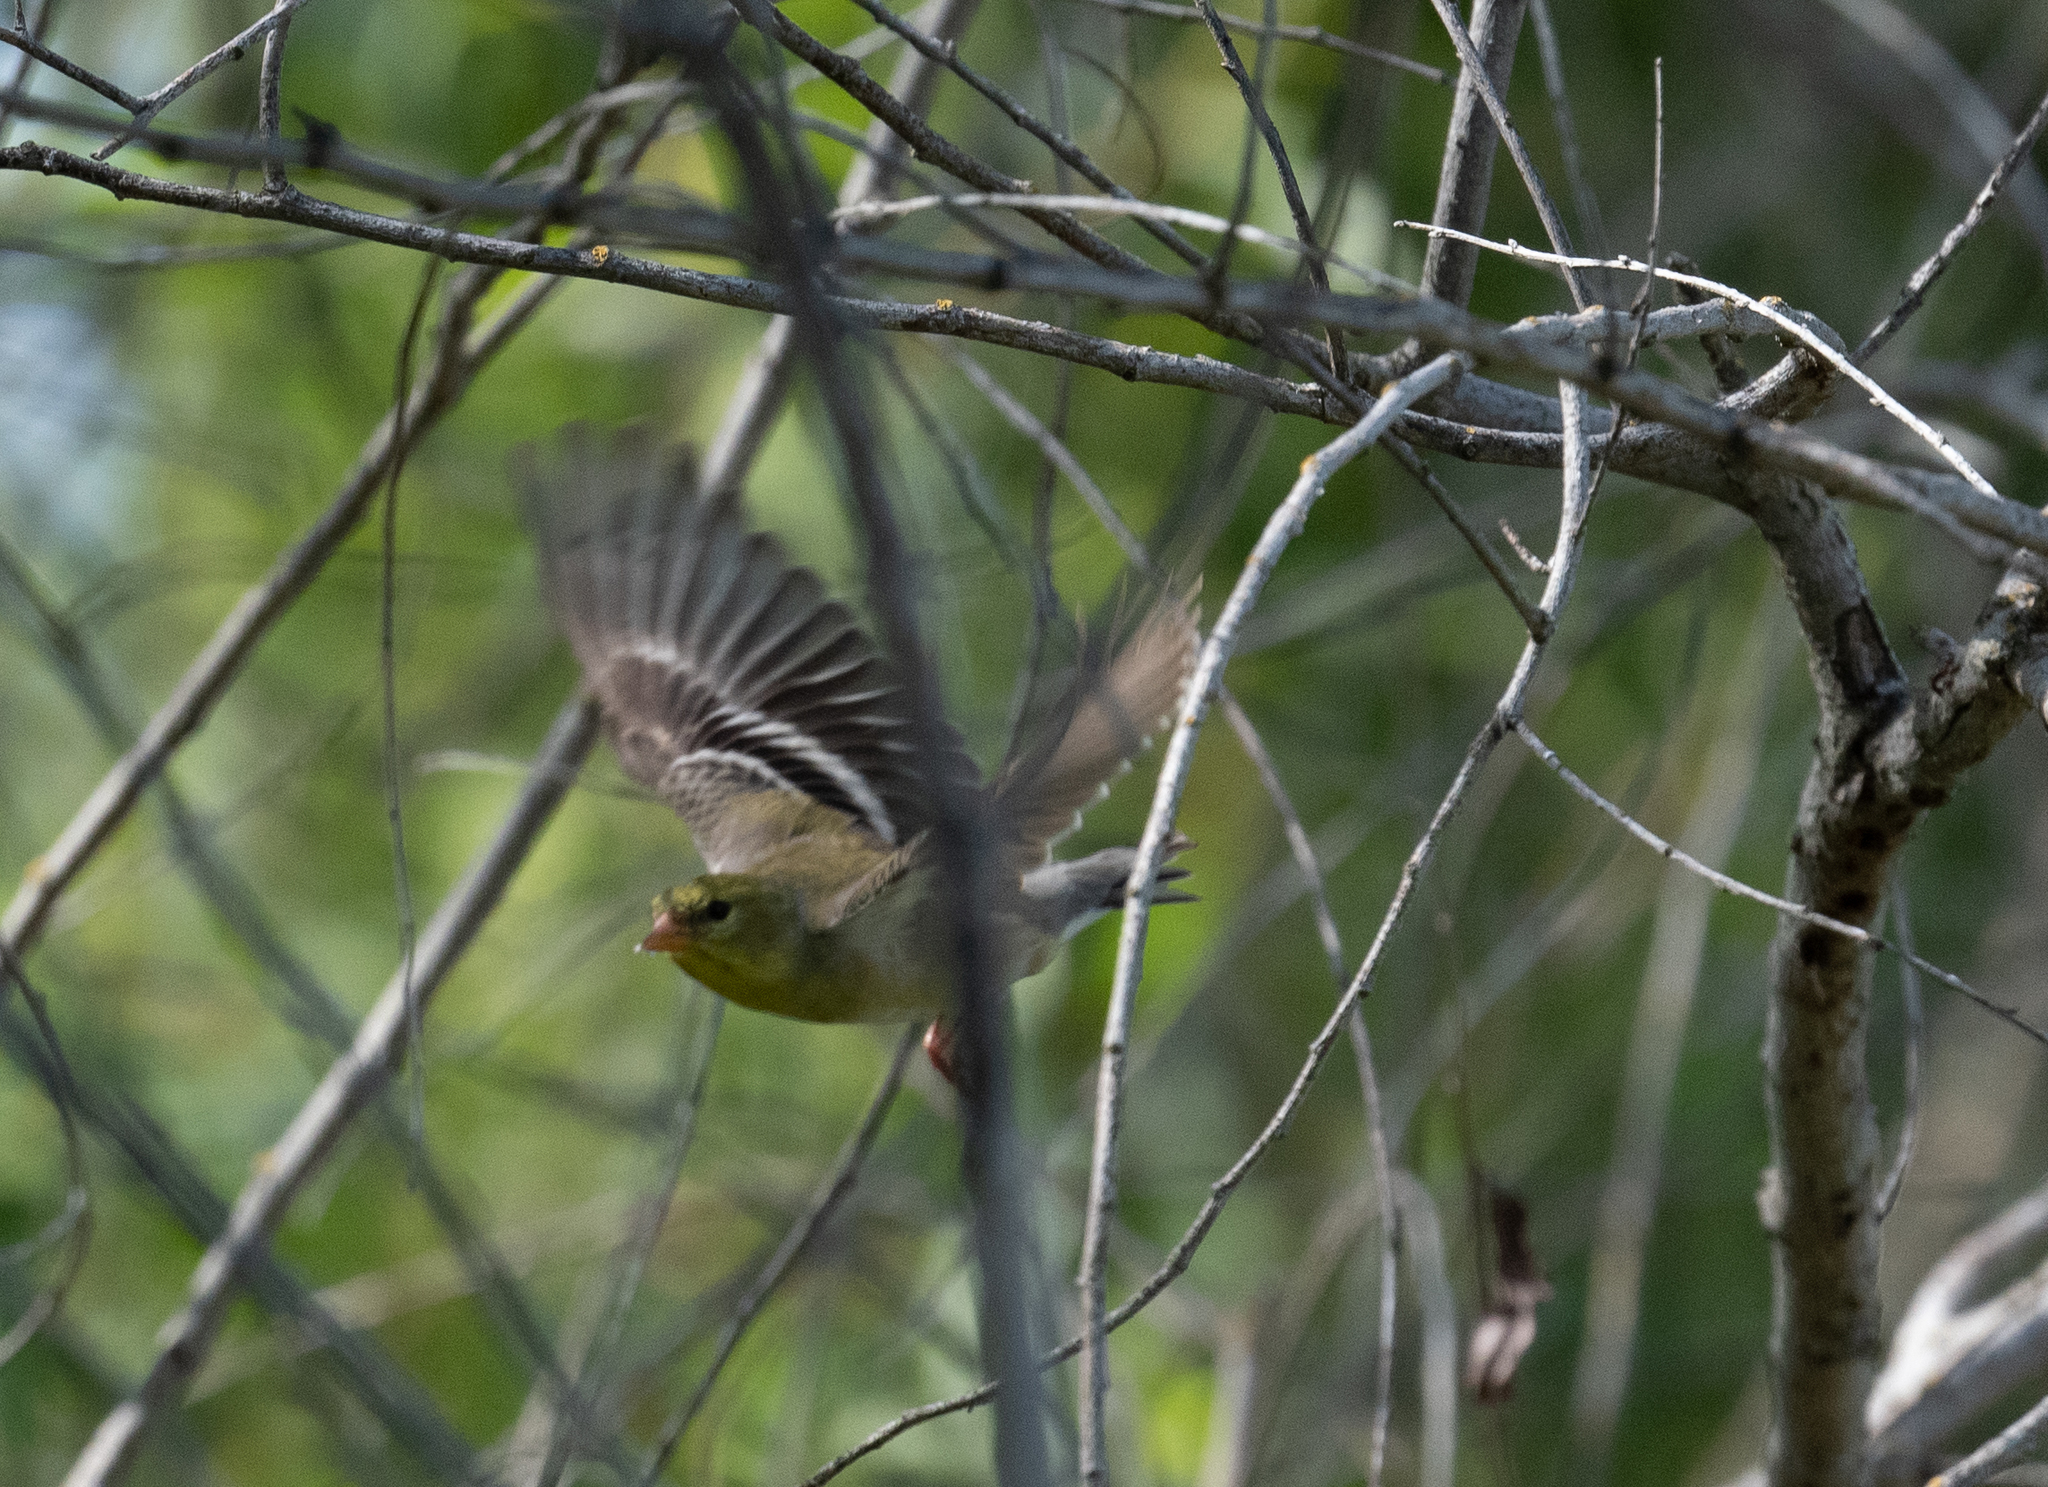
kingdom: Animalia
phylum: Chordata
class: Aves
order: Passeriformes
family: Fringillidae
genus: Spinus
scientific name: Spinus tristis
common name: American goldfinch
